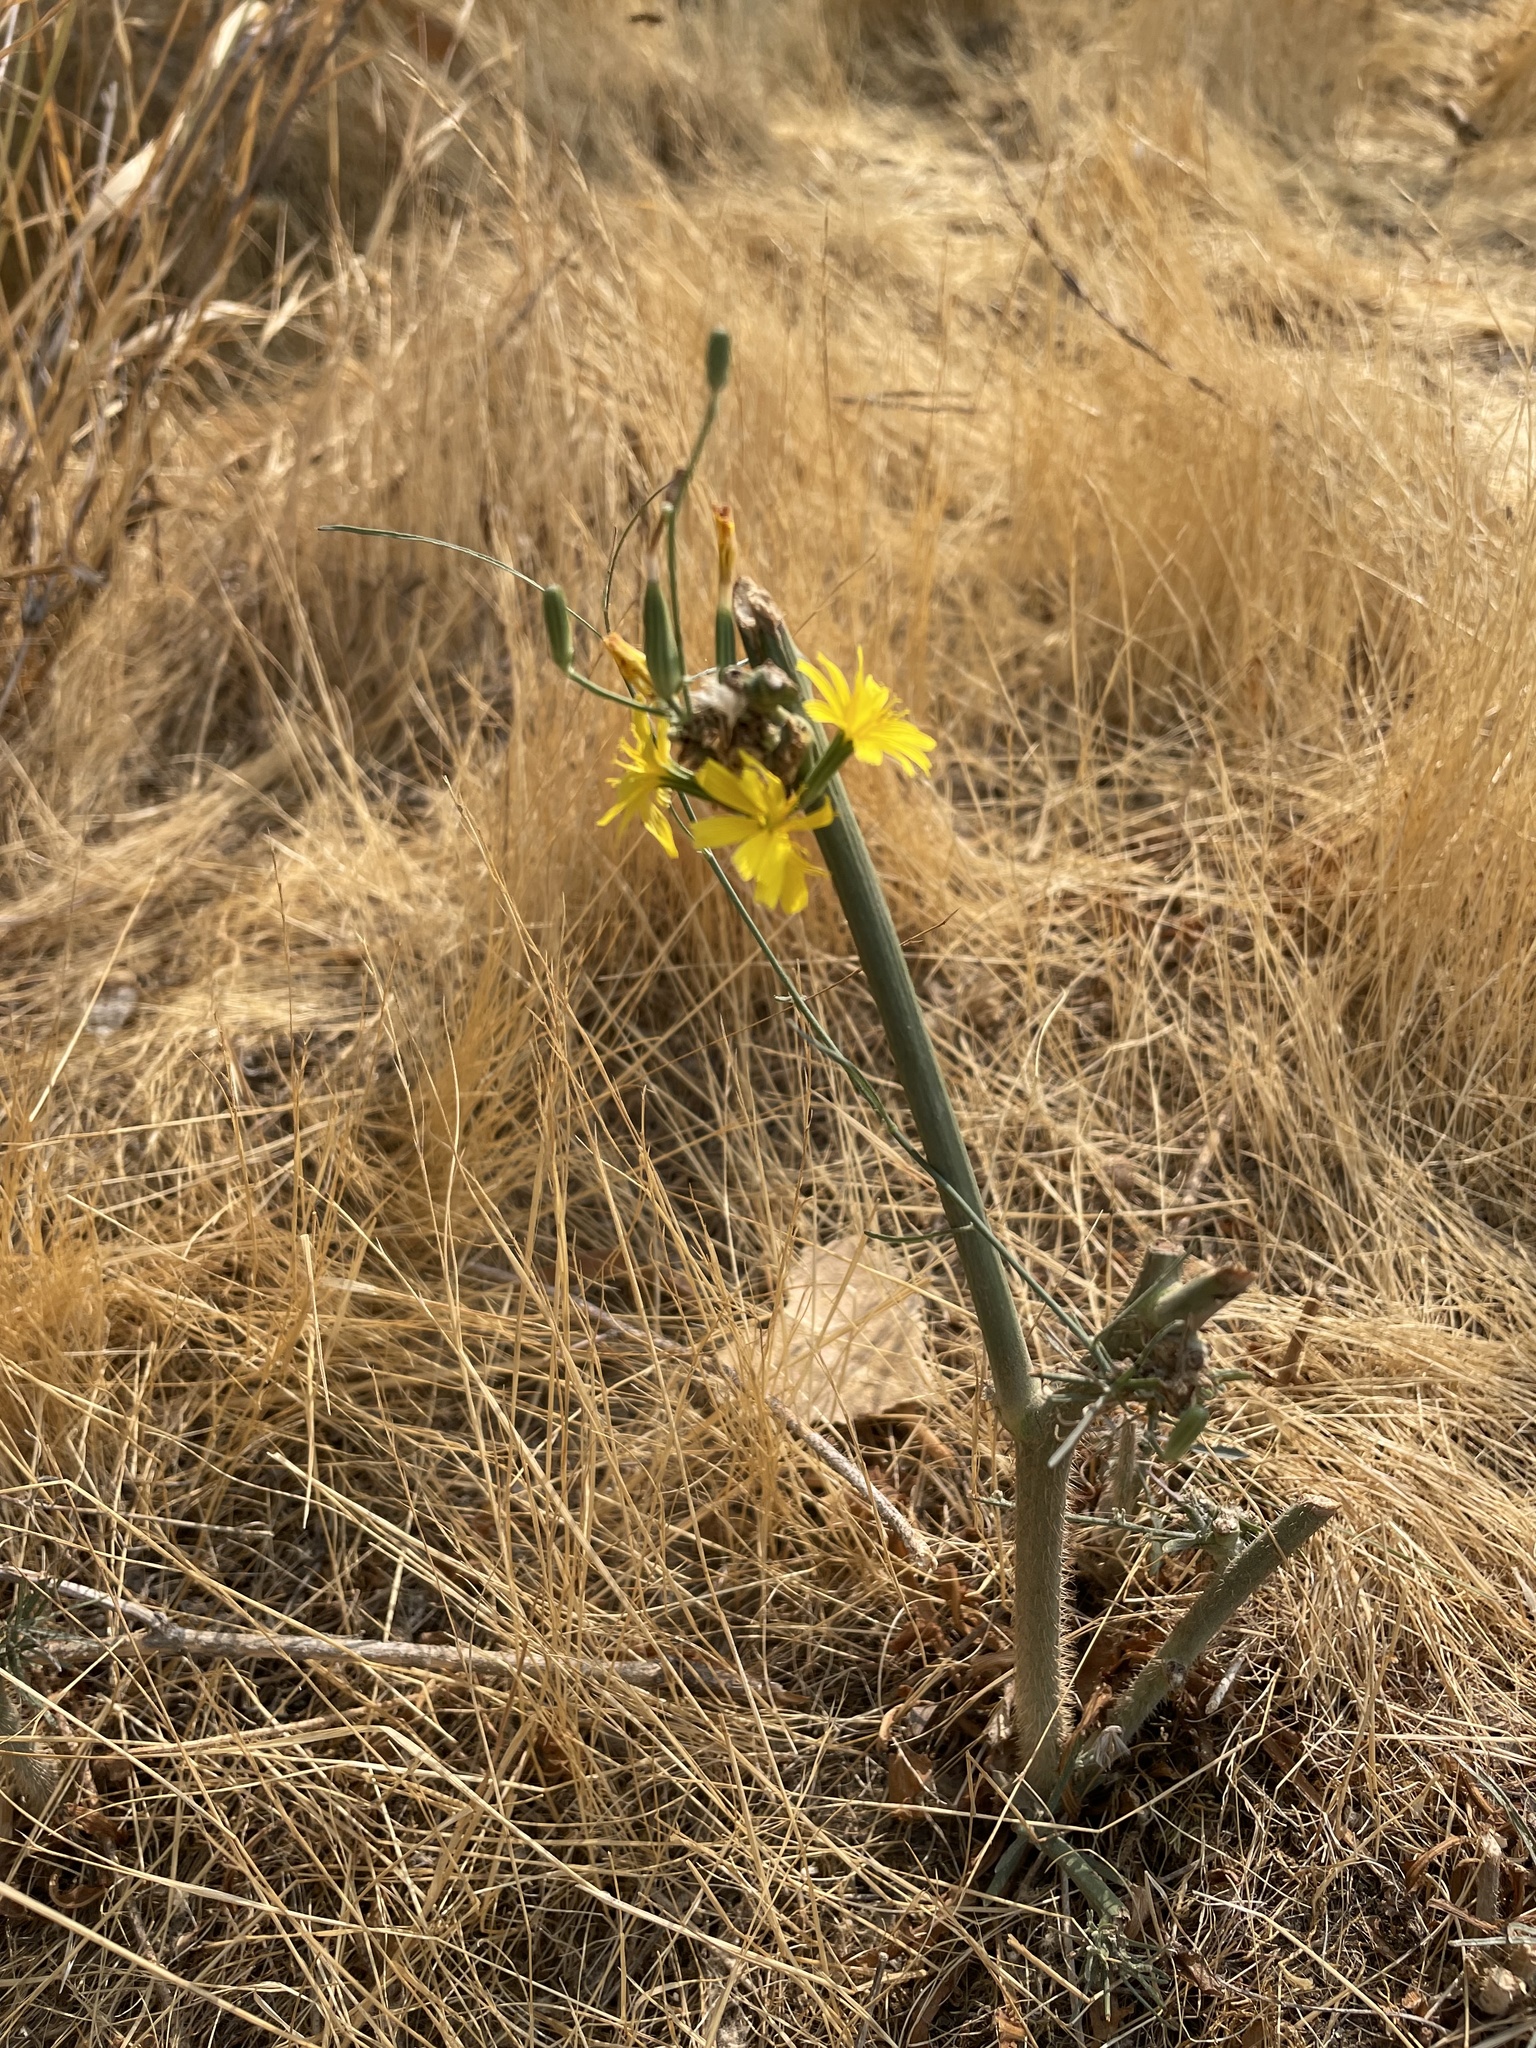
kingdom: Plantae
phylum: Tracheophyta
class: Magnoliopsida
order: Asterales
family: Asteraceae
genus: Chondrilla
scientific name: Chondrilla juncea
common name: Skeleton weed
